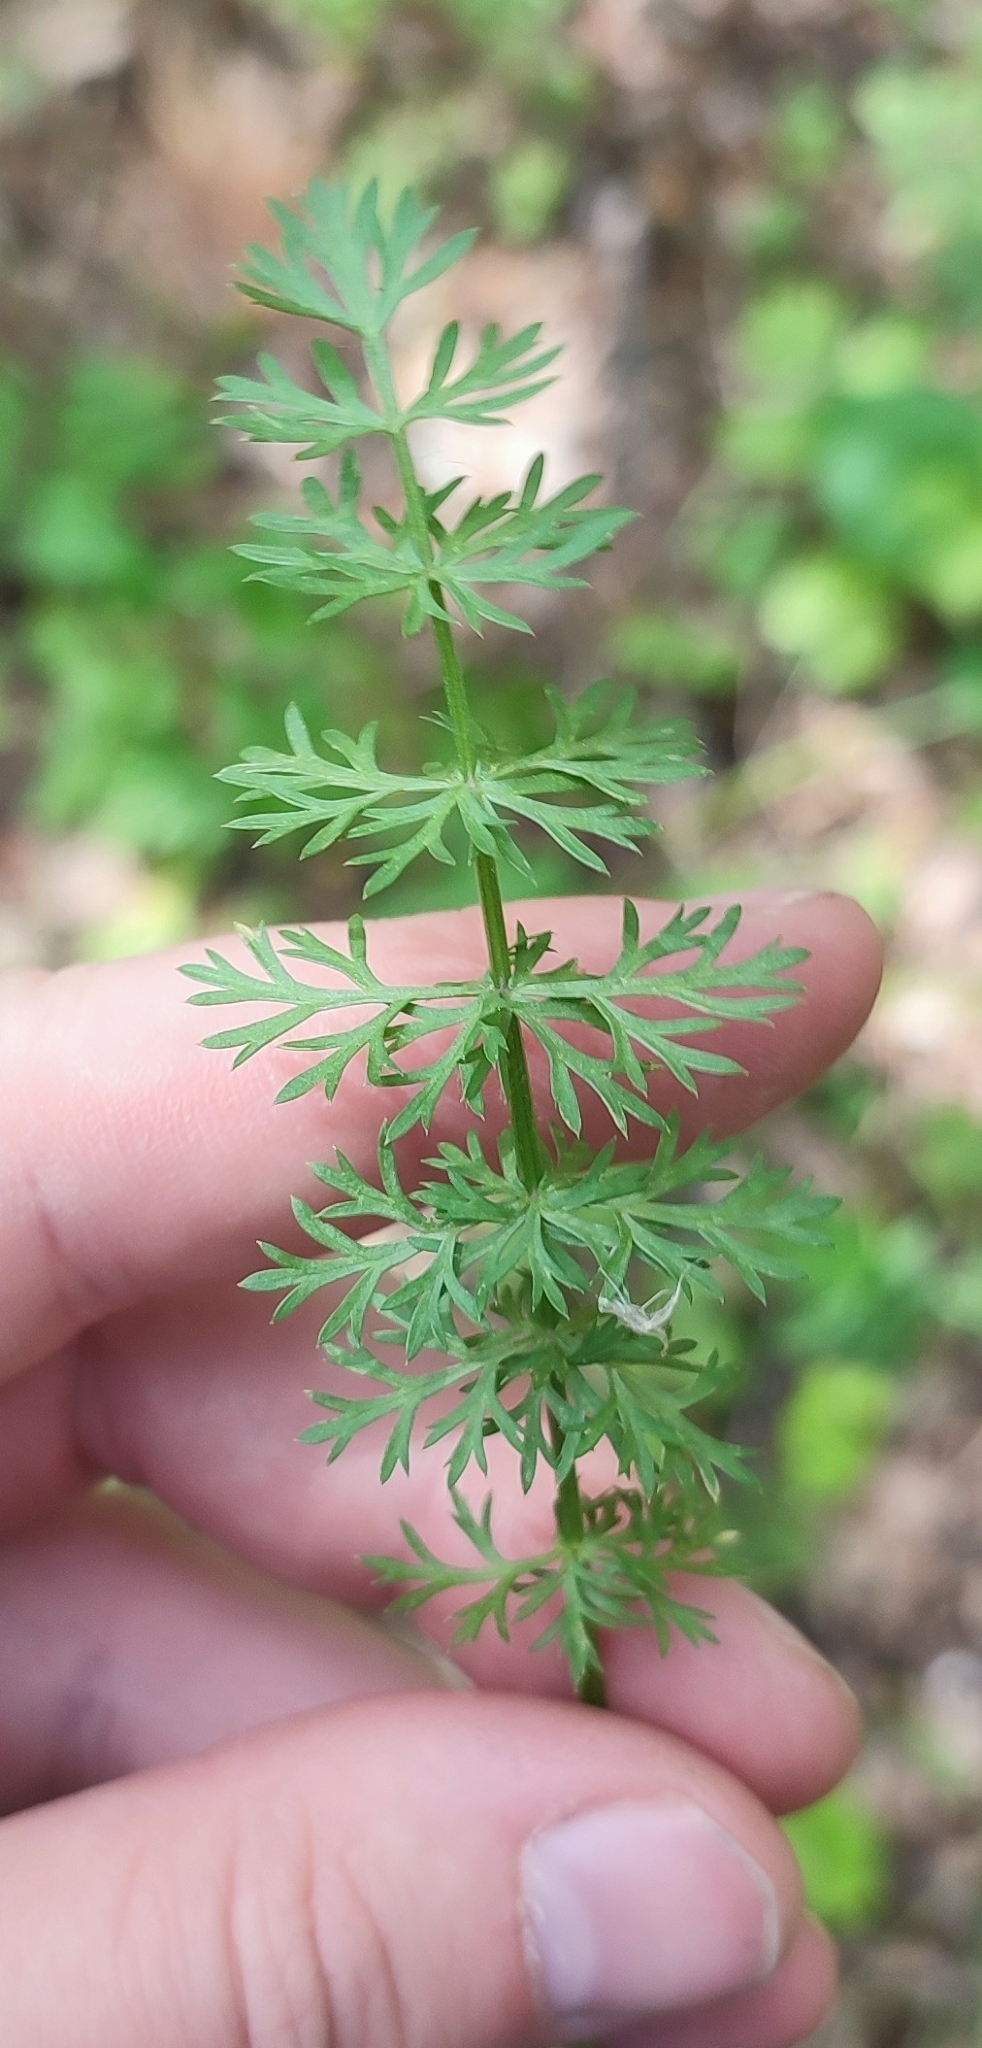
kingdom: Plantae
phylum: Tracheophyta
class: Magnoliopsida
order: Apiales
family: Apiaceae
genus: Carum
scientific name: Carum carvi
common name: Caraway
